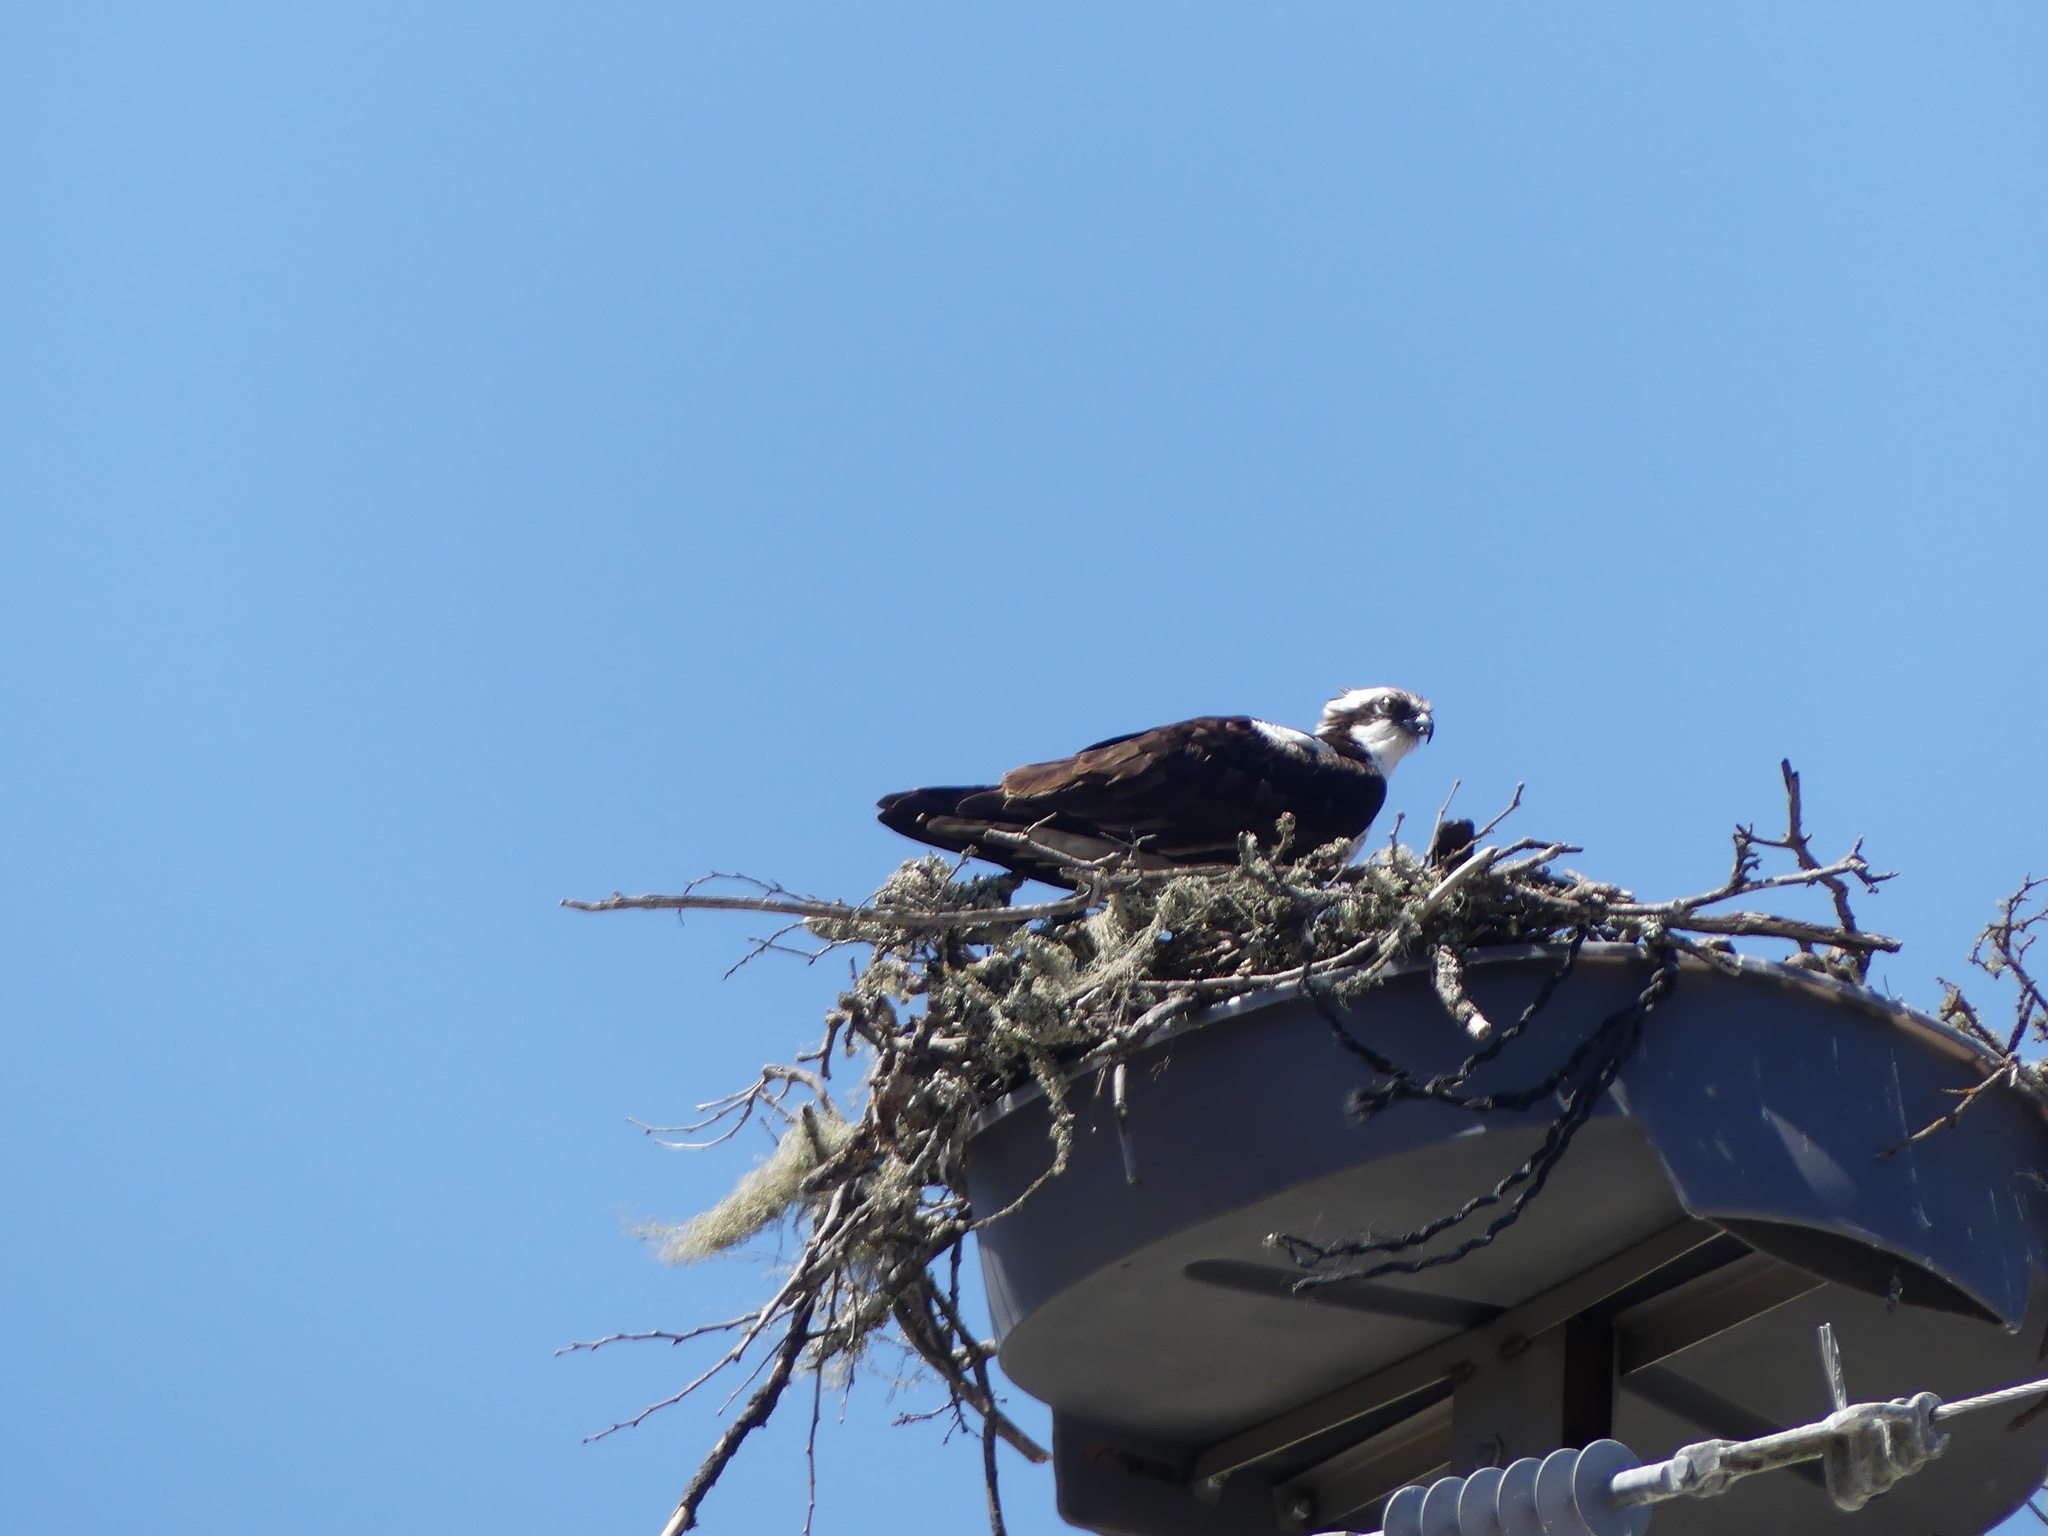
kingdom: Animalia
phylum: Chordata
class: Aves
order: Accipitriformes
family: Pandionidae
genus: Pandion
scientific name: Pandion haliaetus
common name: Osprey
